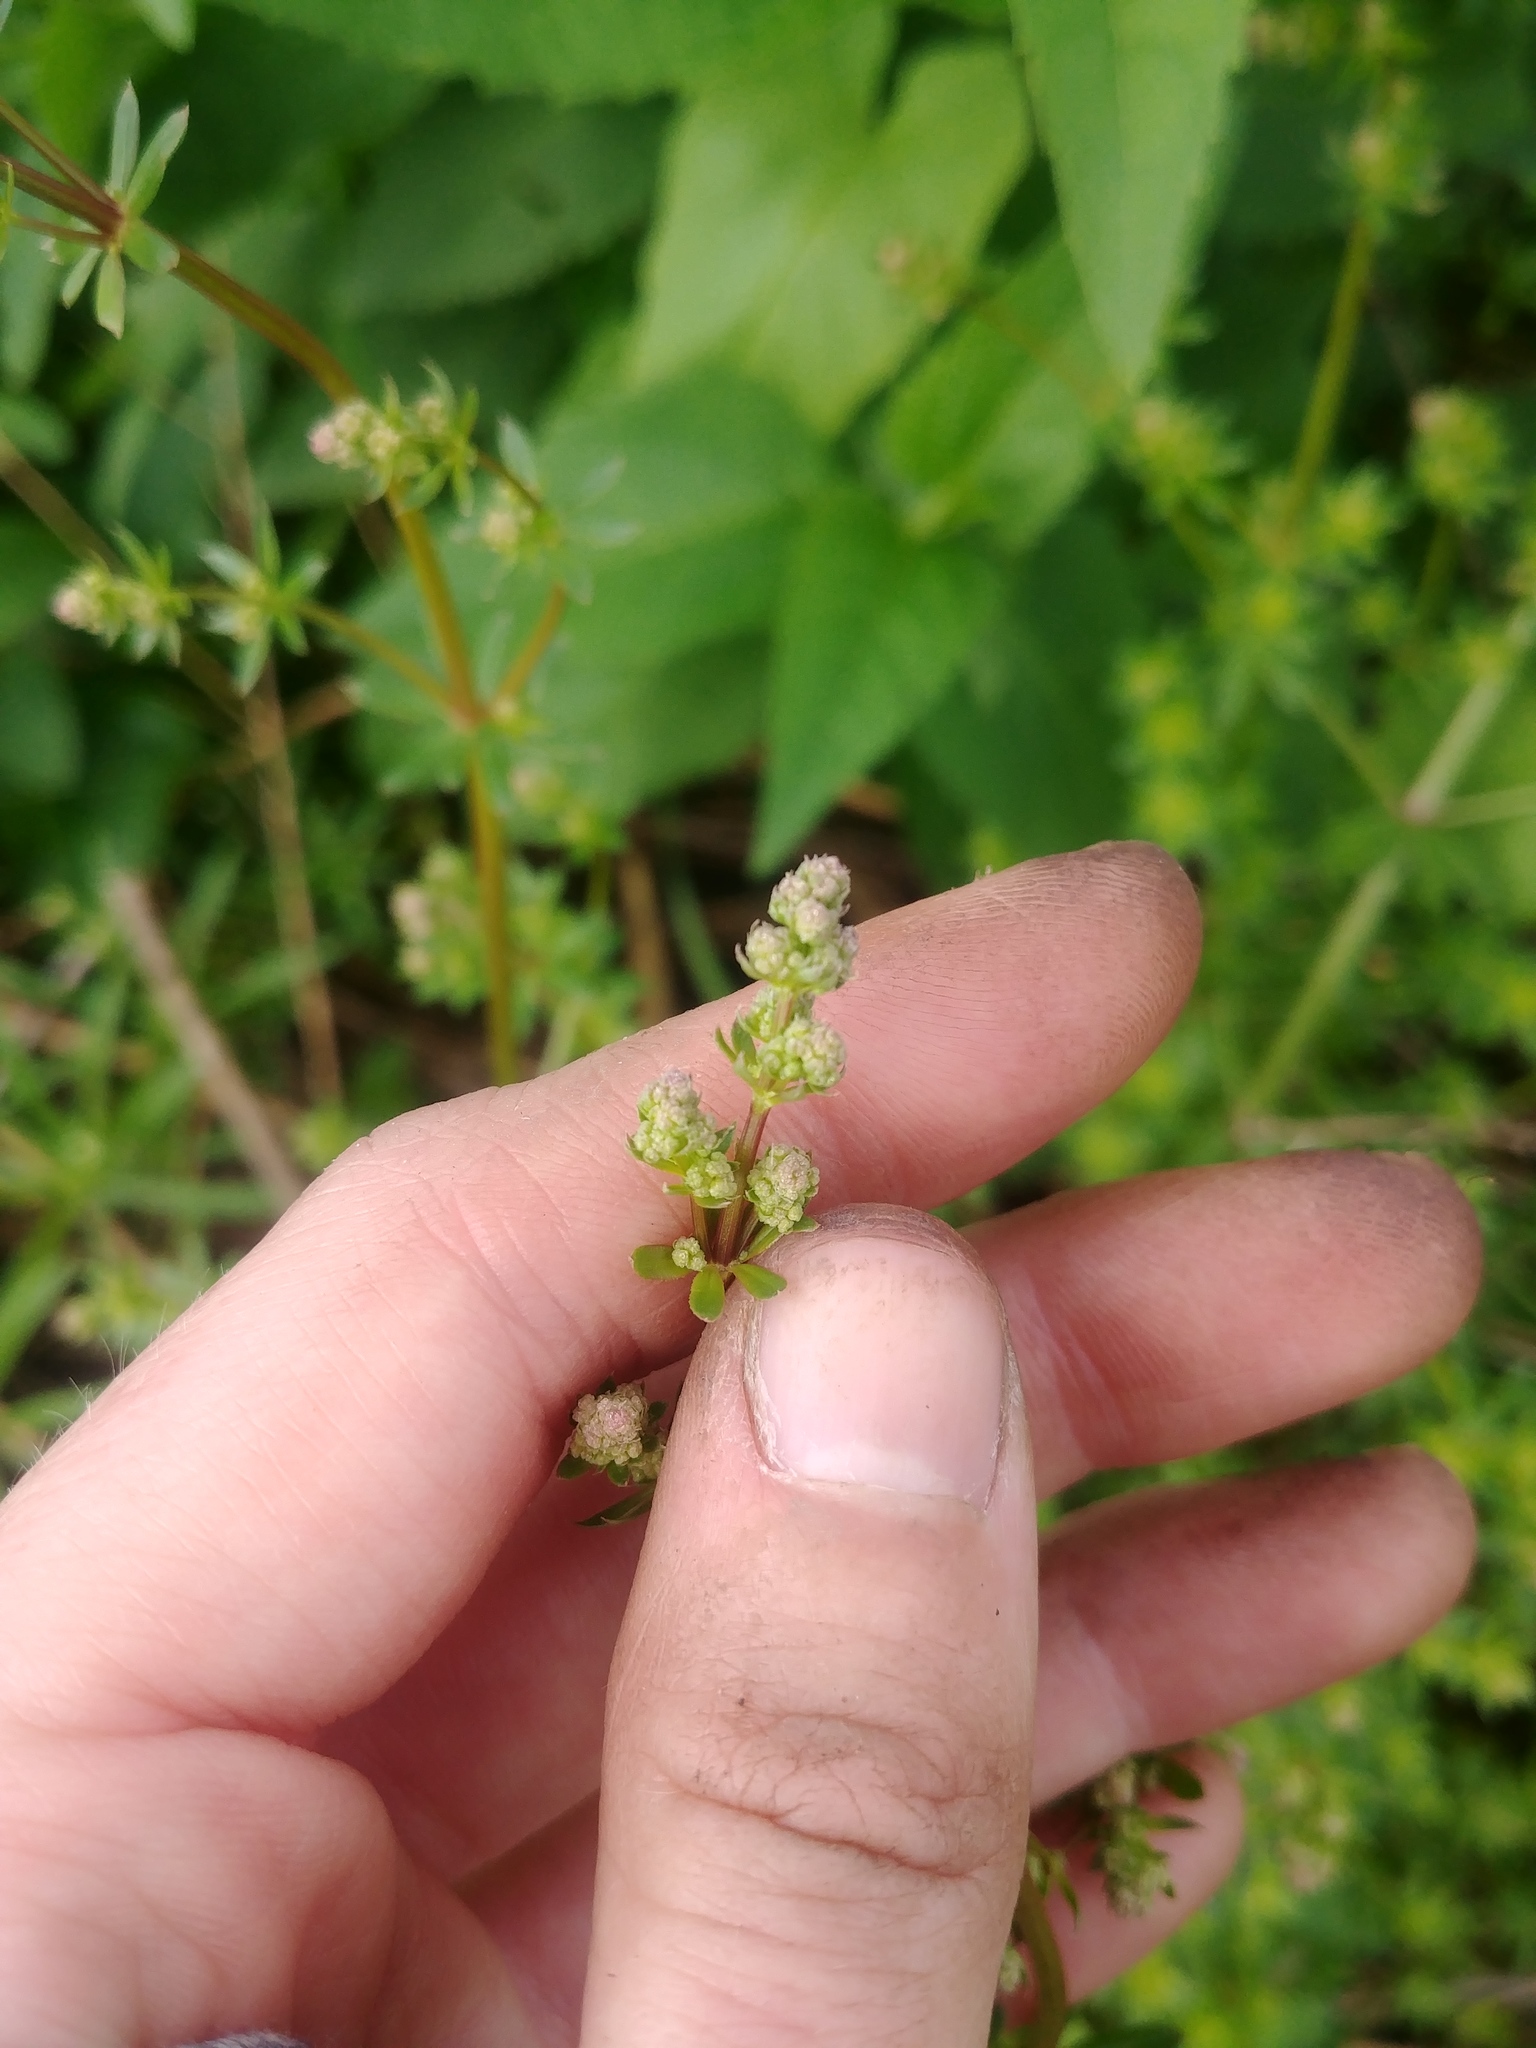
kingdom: Plantae
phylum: Tracheophyta
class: Magnoliopsida
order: Gentianales
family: Rubiaceae
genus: Galium
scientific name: Galium mollugo
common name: Hedge bedstraw
